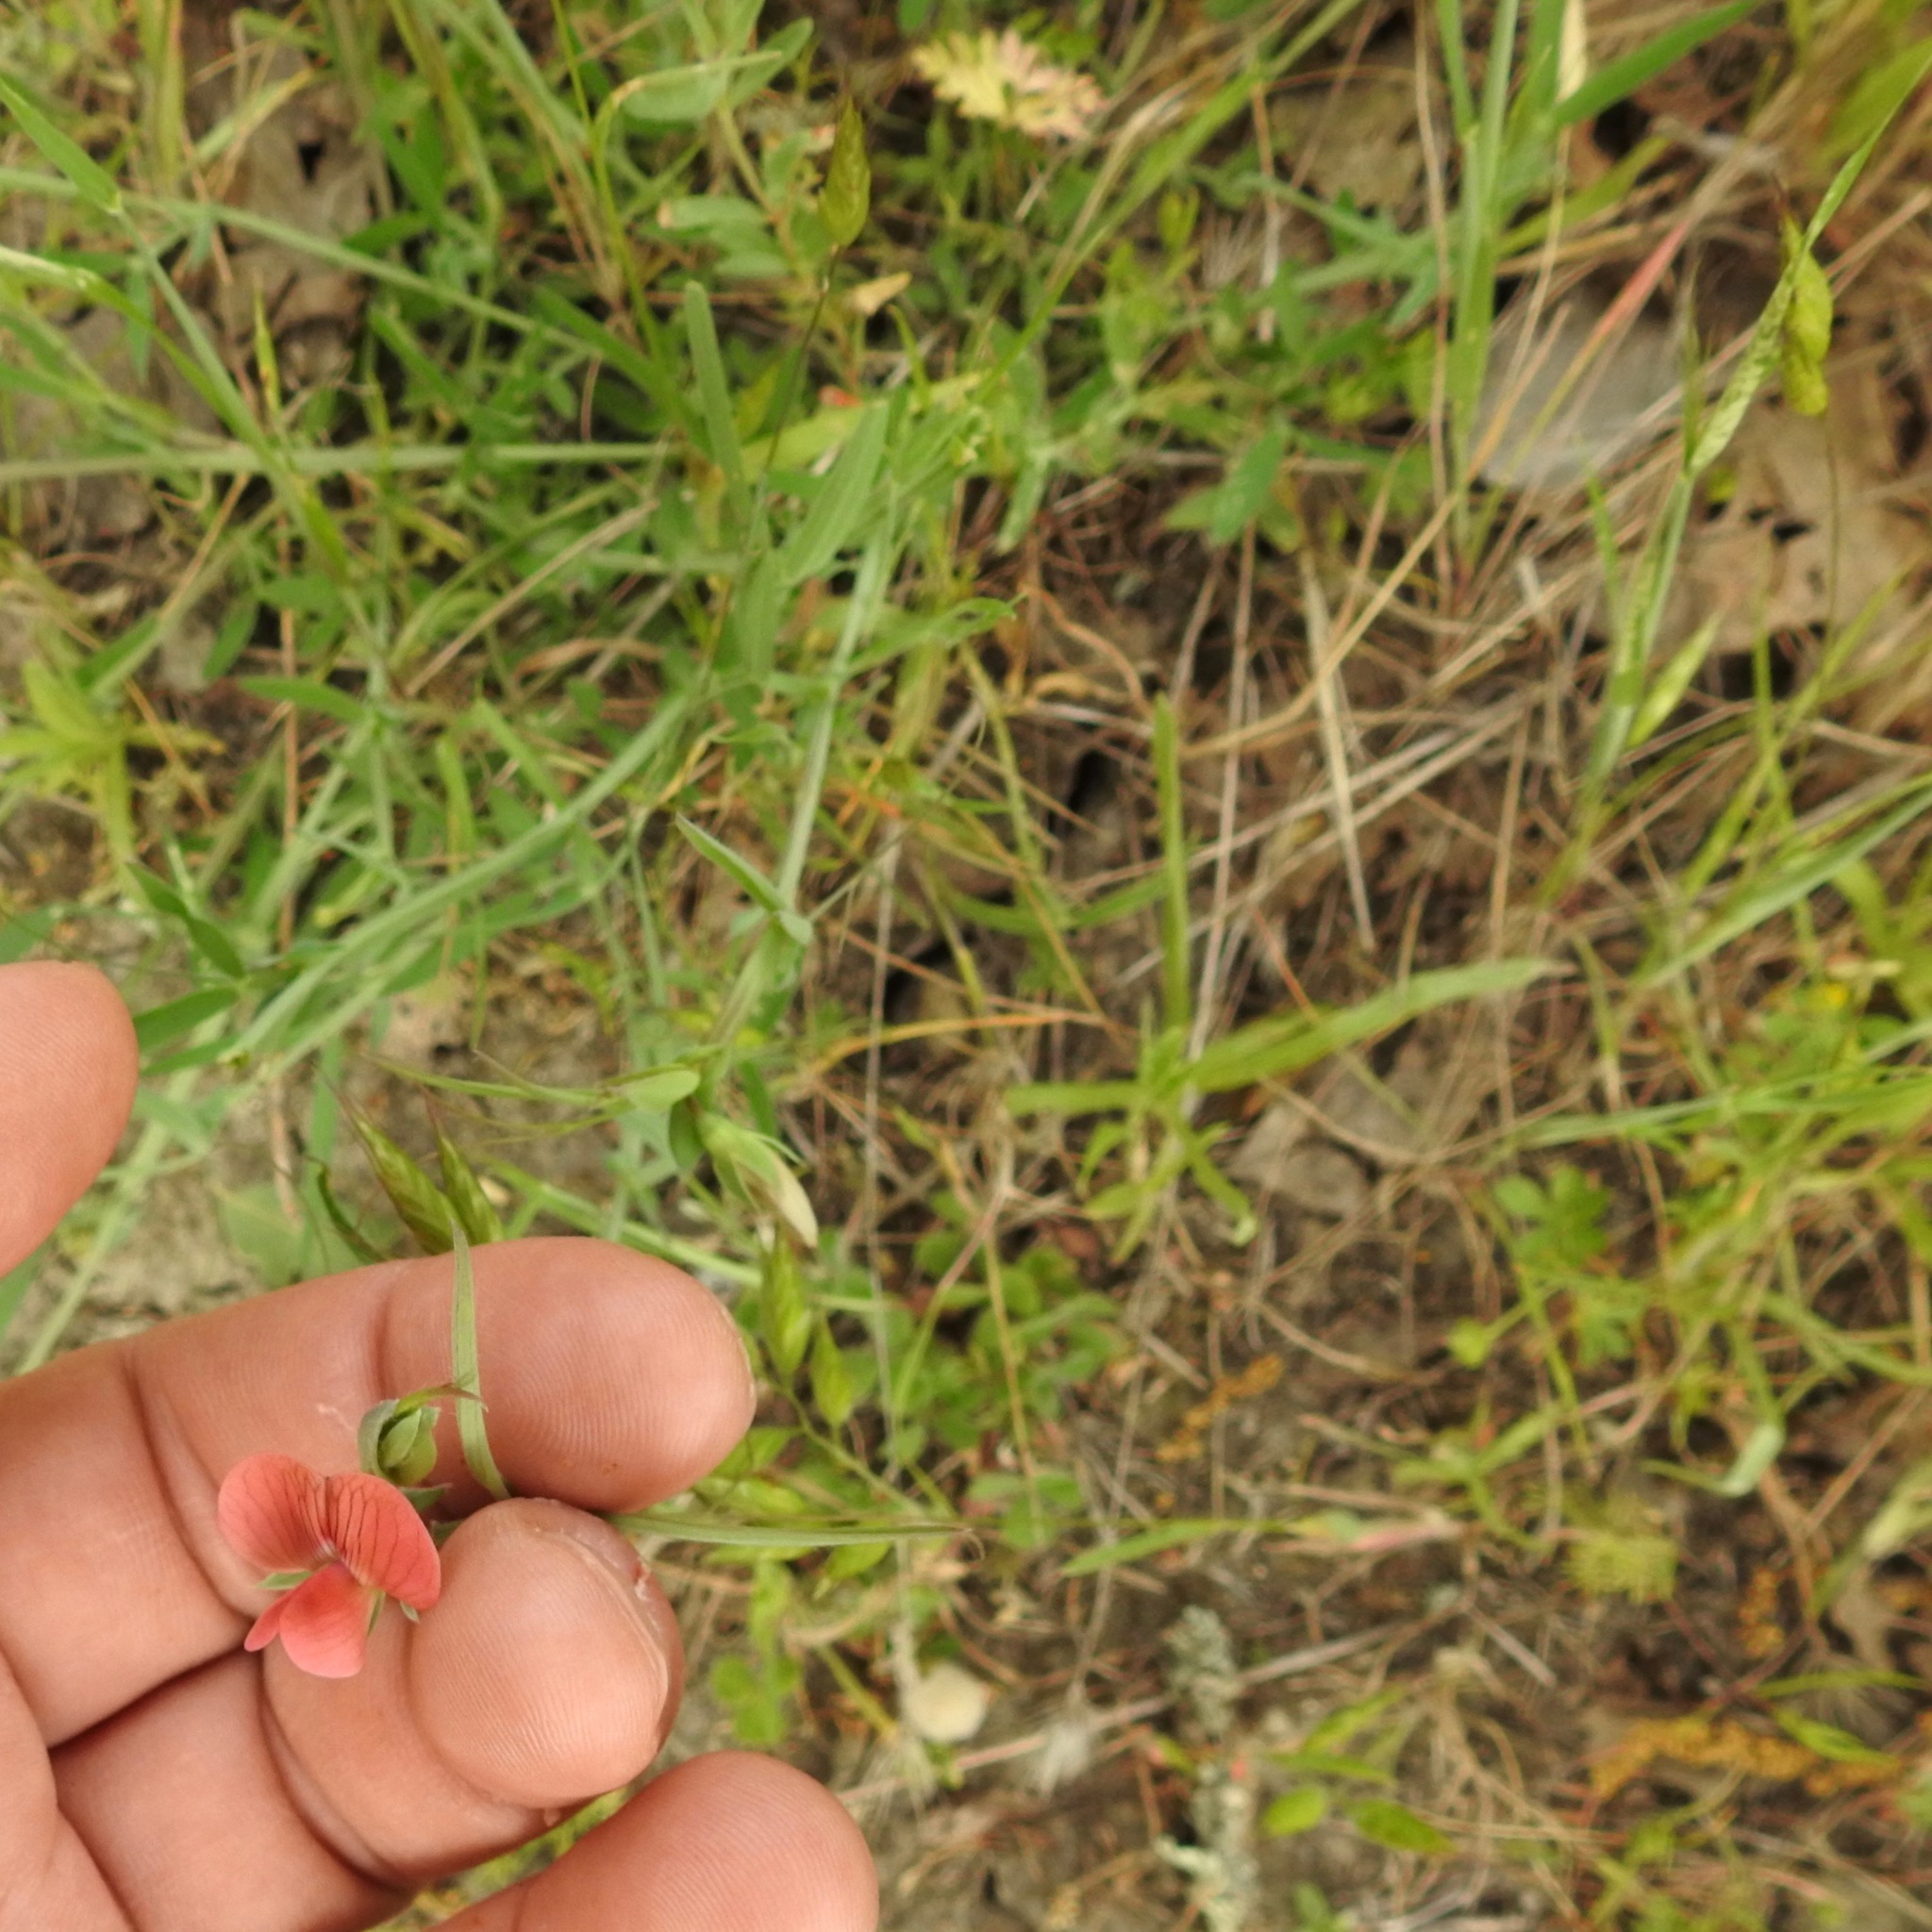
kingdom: Plantae
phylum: Tracheophyta
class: Magnoliopsida
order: Fabales
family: Fabaceae
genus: Lathyrus
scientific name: Lathyrus cicera
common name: Red vetchling
